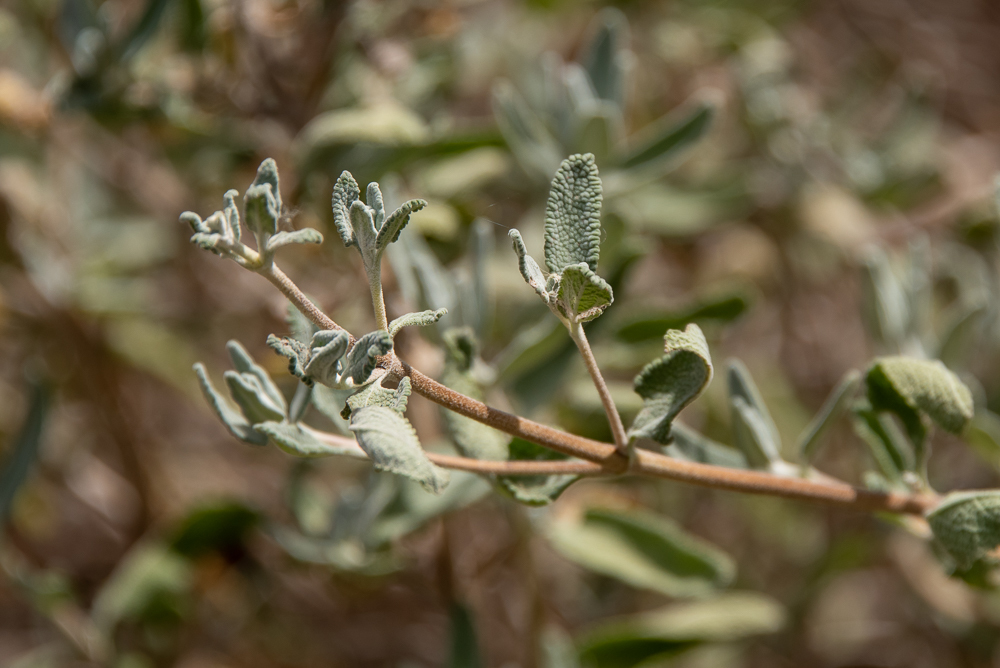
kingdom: Plantae
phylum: Tracheophyta
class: Magnoliopsida
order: Lamiales
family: Lamiaceae
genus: Salvia
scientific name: Salvia mellifera
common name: Black sage
